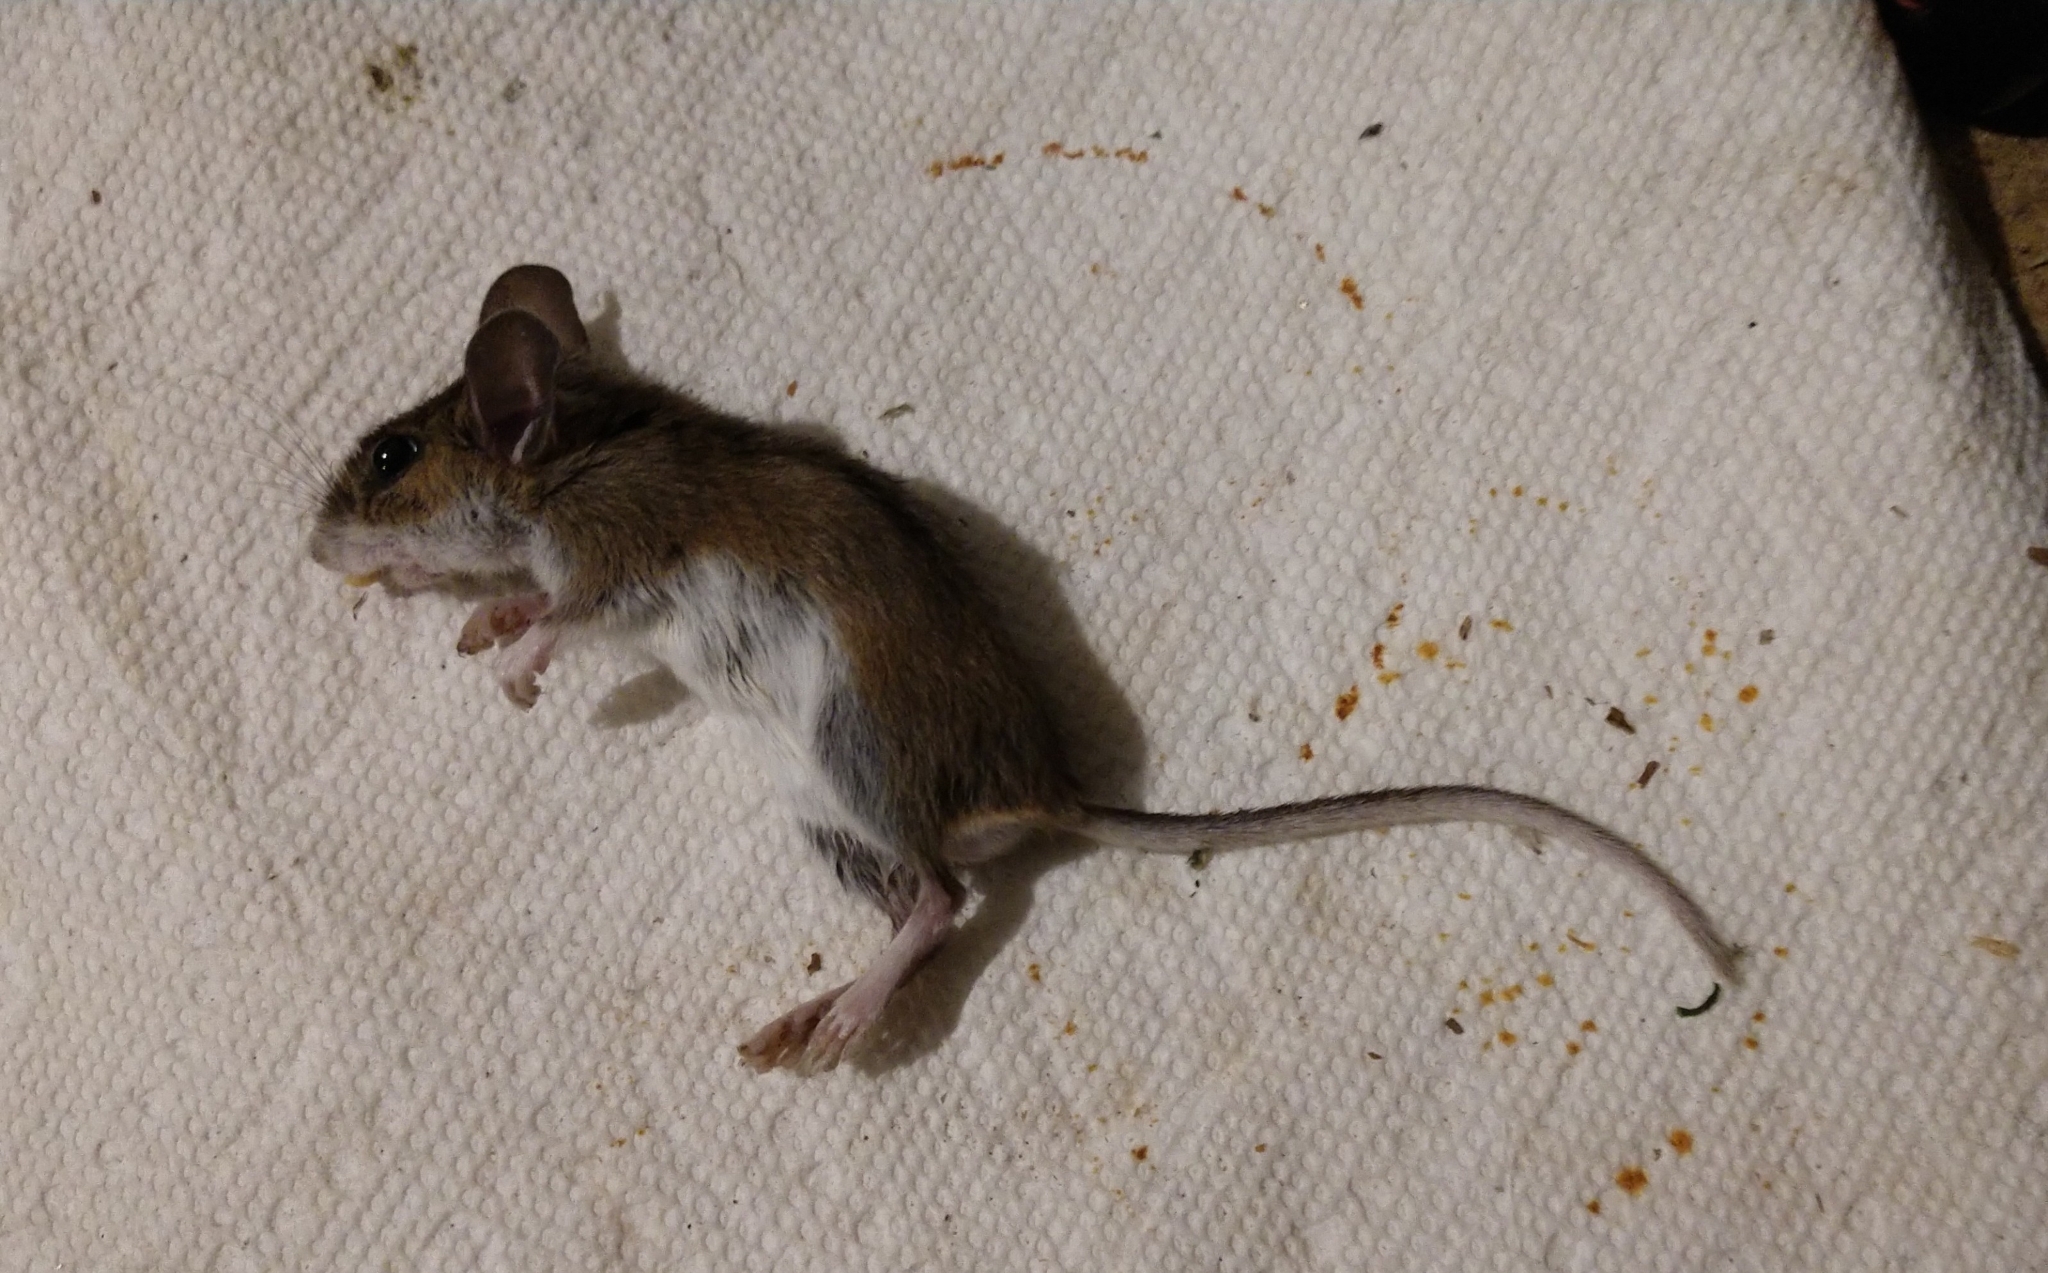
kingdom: Animalia
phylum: Chordata
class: Mammalia
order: Rodentia
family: Cricetidae
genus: Peromyscus
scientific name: Peromyscus leucopus
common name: White-footed deermouse
